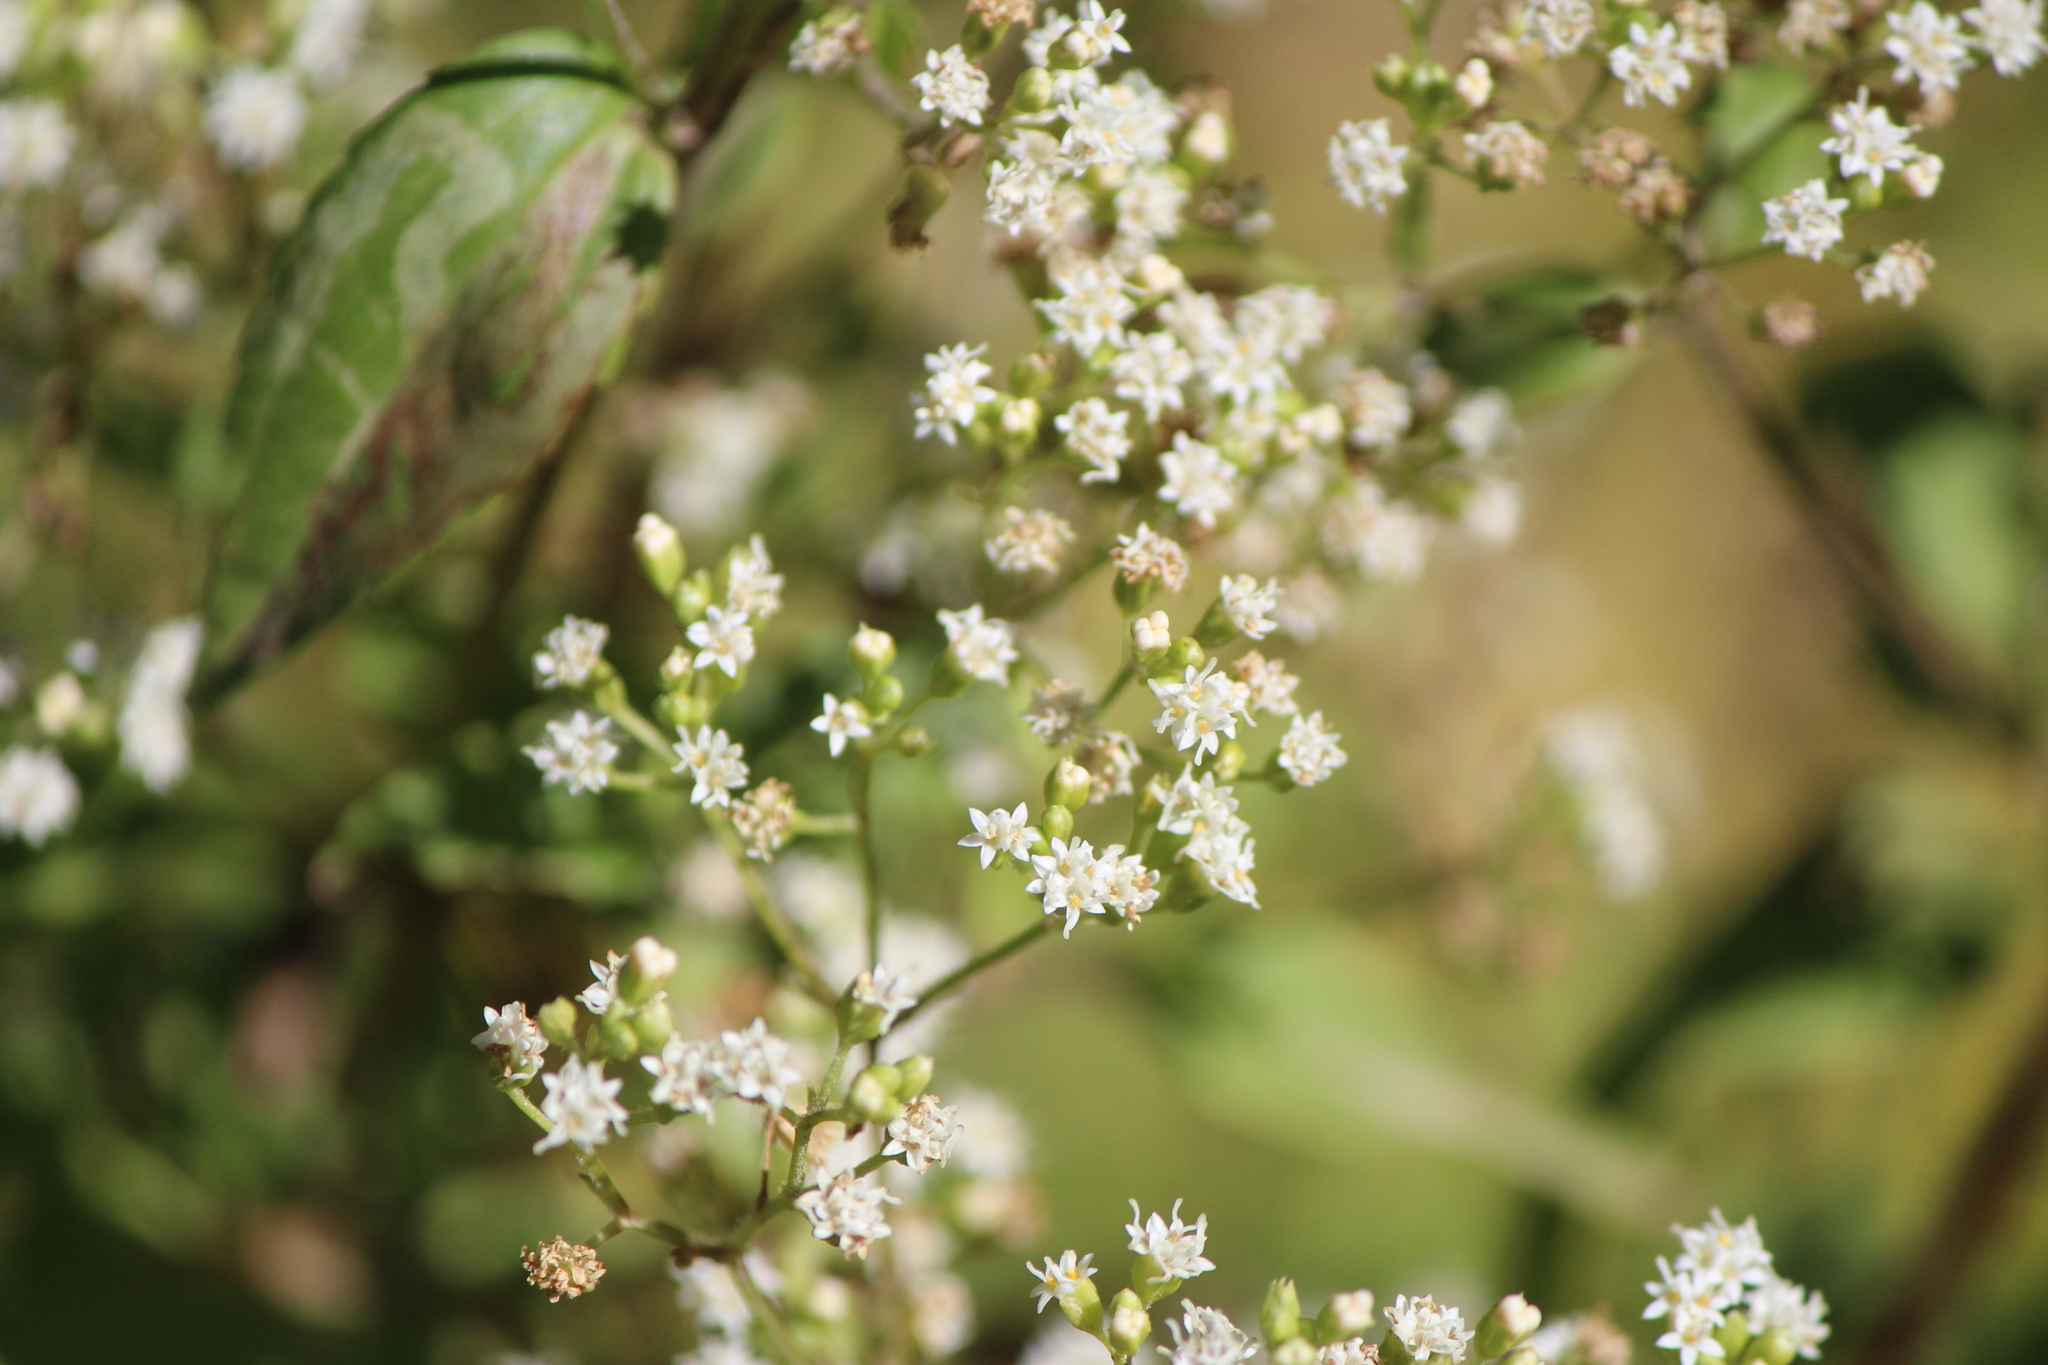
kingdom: Plantae
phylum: Tracheophyta
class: Magnoliopsida
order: Asterales
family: Asteraceae
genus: Piqueria
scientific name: Piqueria trinervia
